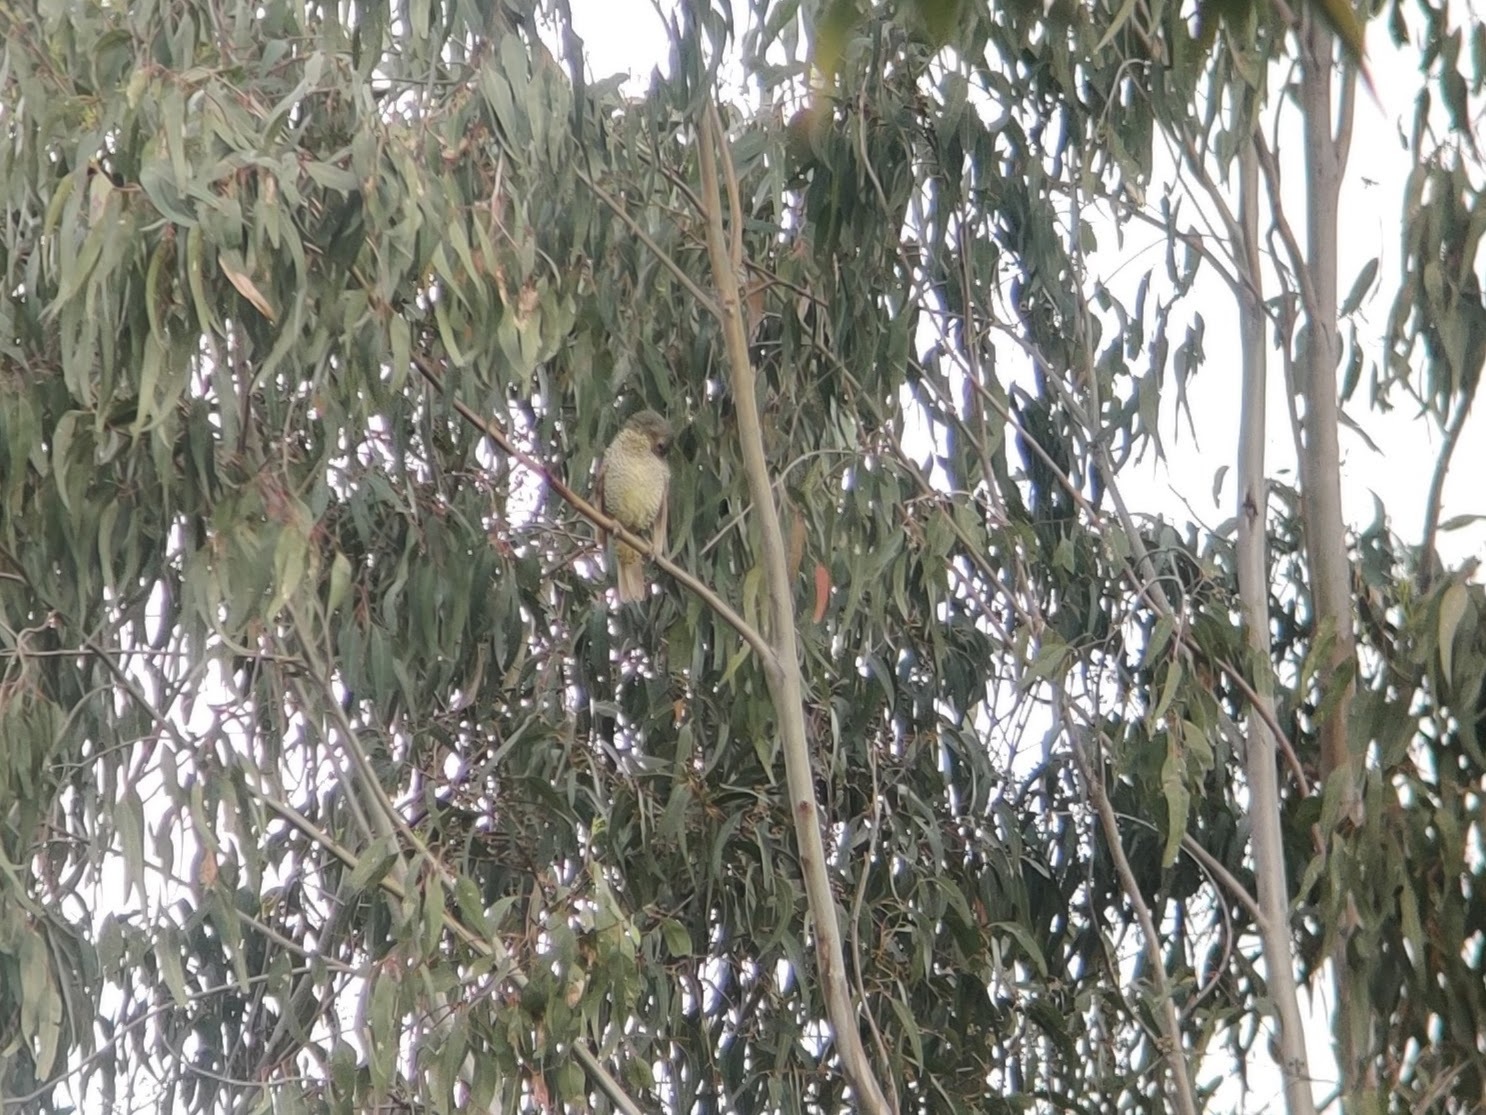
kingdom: Animalia
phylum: Chordata
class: Aves
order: Passeriformes
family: Ptilonorhynchidae
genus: Ptilonorhynchus
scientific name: Ptilonorhynchus violaceus
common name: Satin bowerbird
